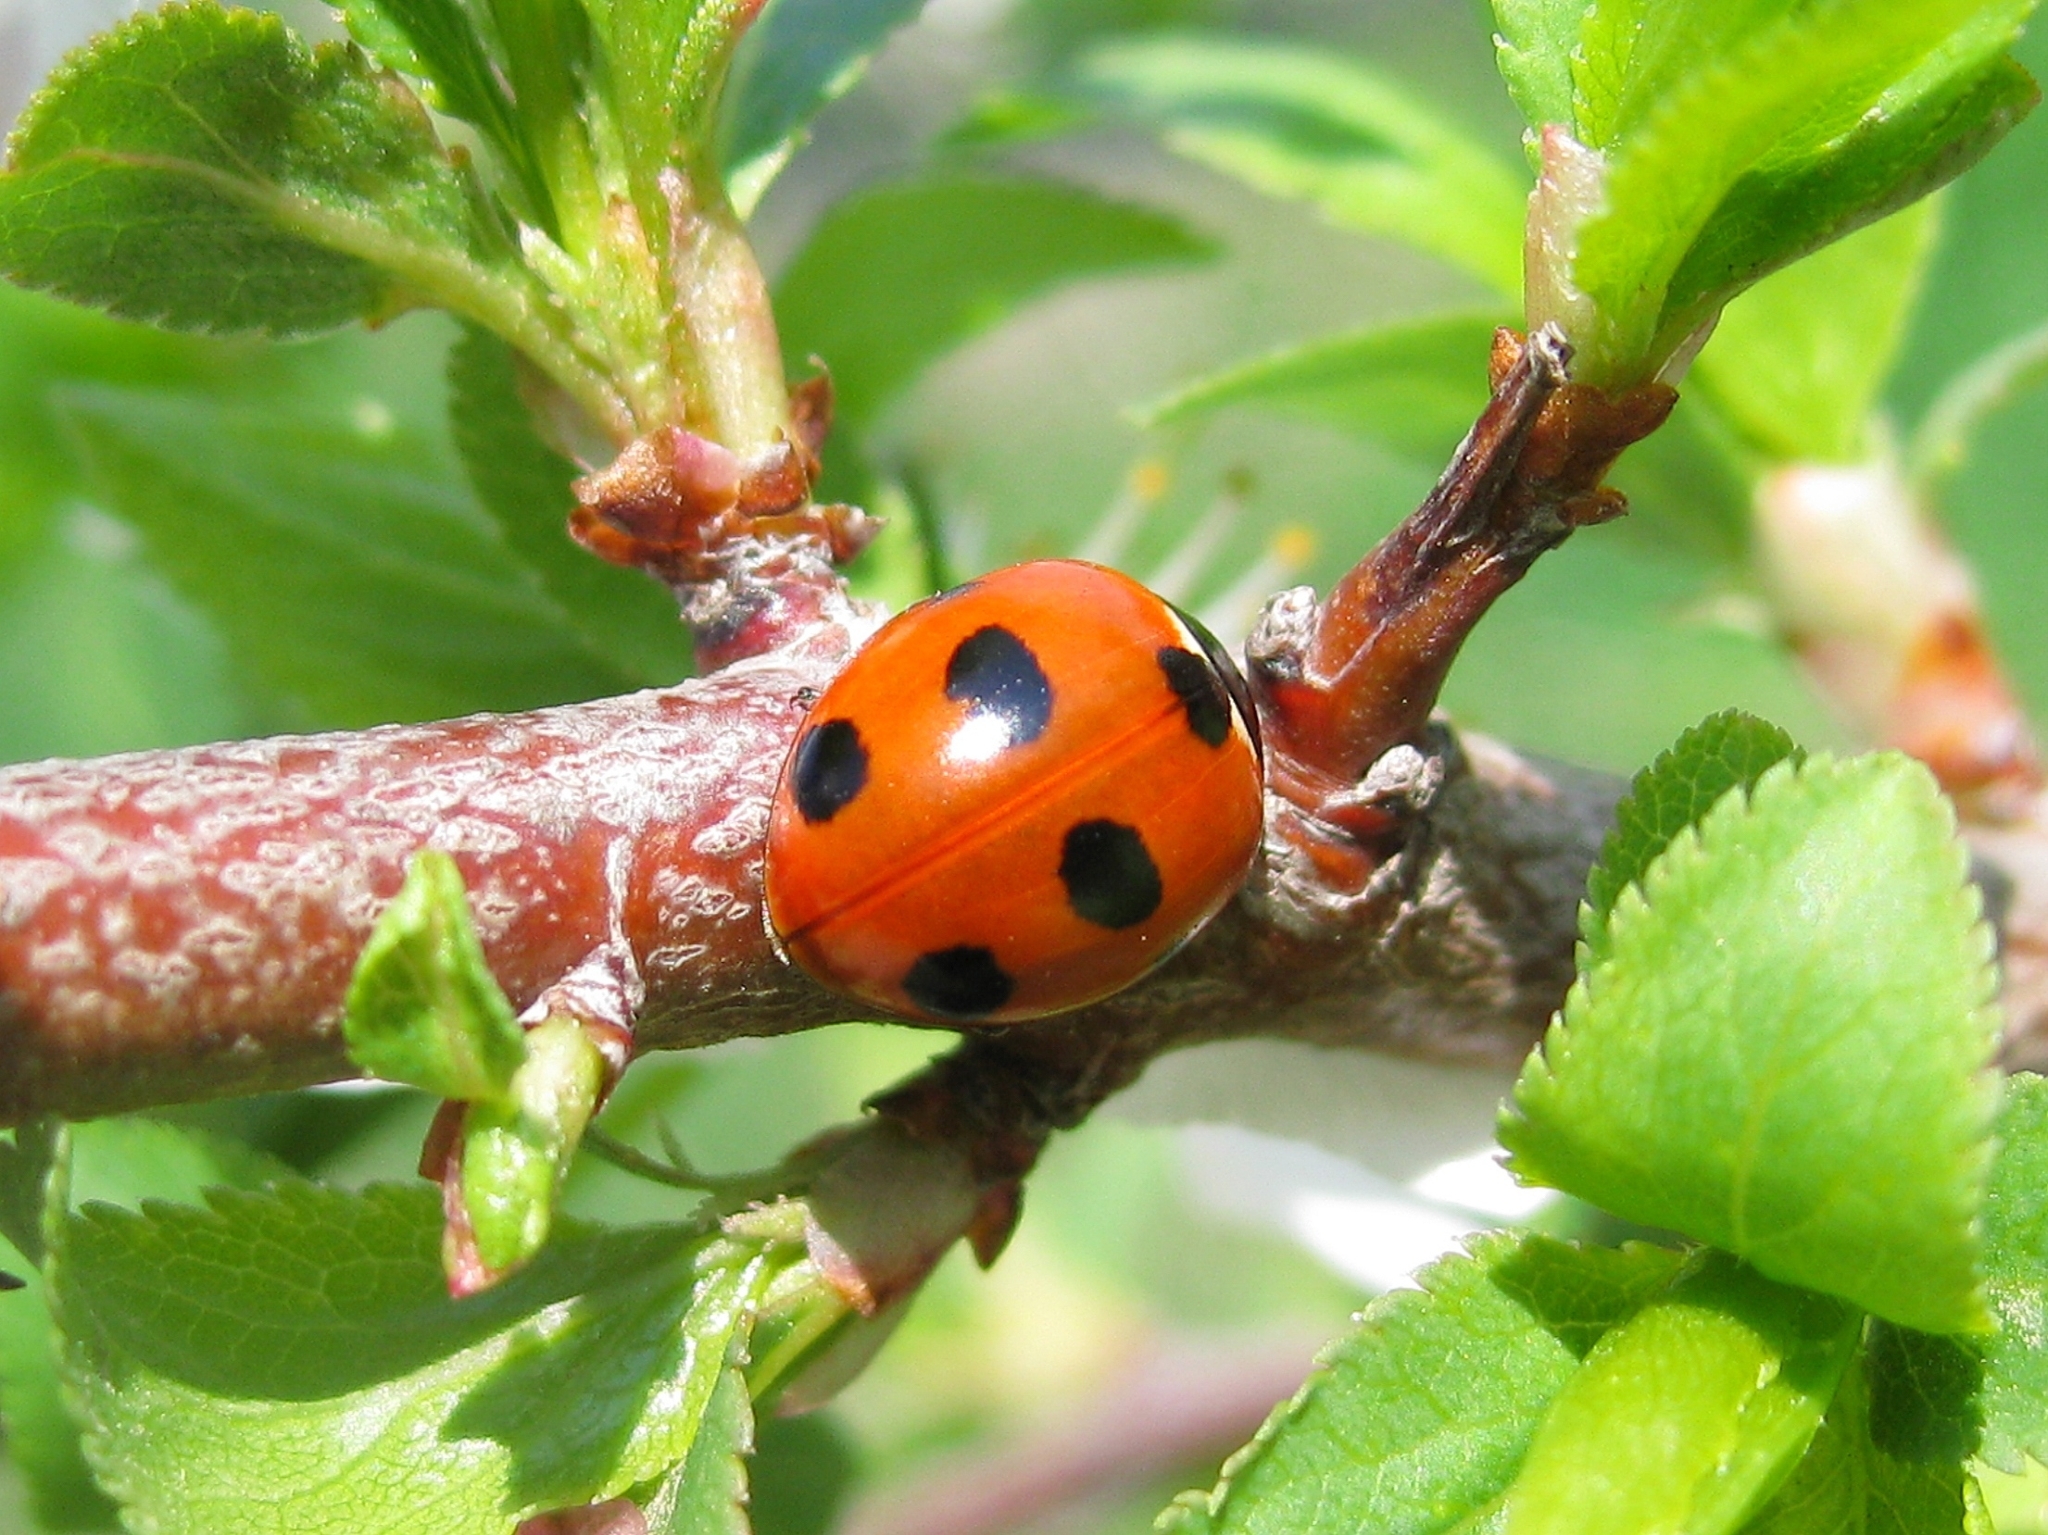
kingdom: Animalia
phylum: Arthropoda
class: Insecta
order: Coleoptera
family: Coccinellidae
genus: Coccinella
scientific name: Coccinella magnifica
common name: Scarce 7-spot ladybird
